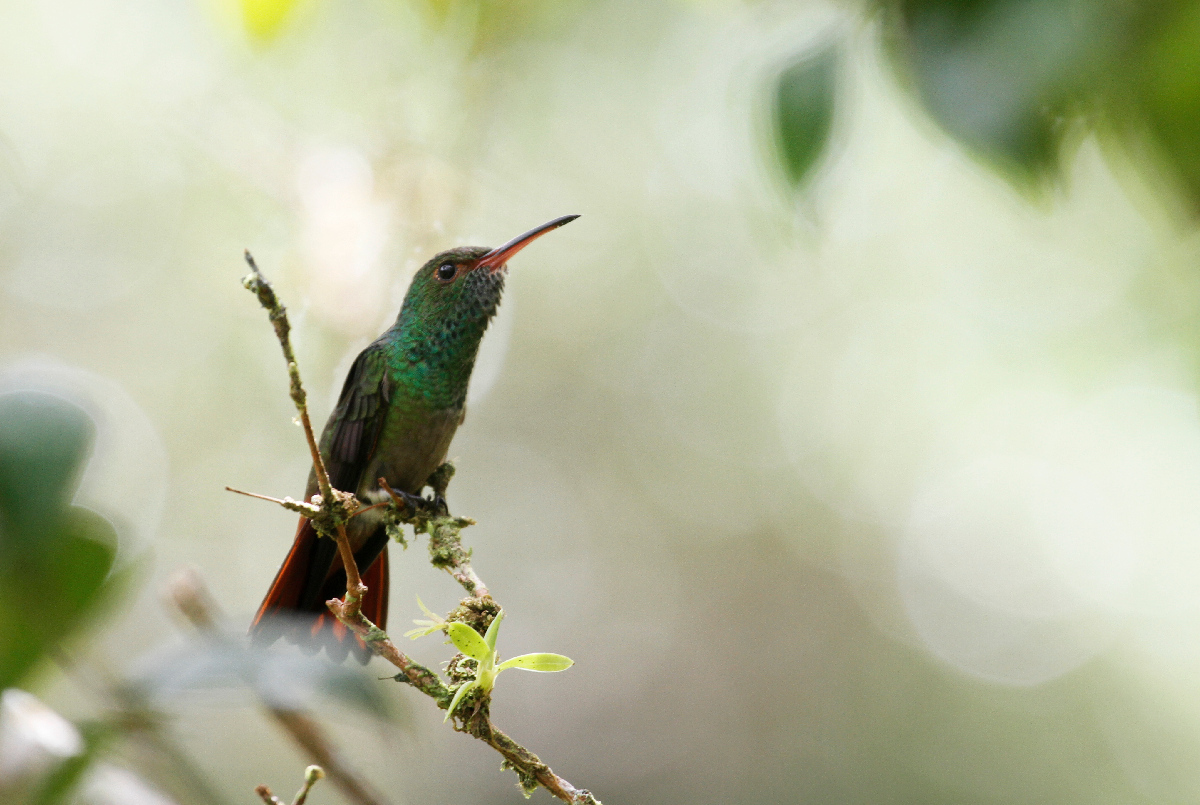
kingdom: Animalia
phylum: Chordata
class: Aves
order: Apodiformes
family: Trochilidae
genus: Amazilia
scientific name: Amazilia tzacatl
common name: Rufous-tailed hummingbird
